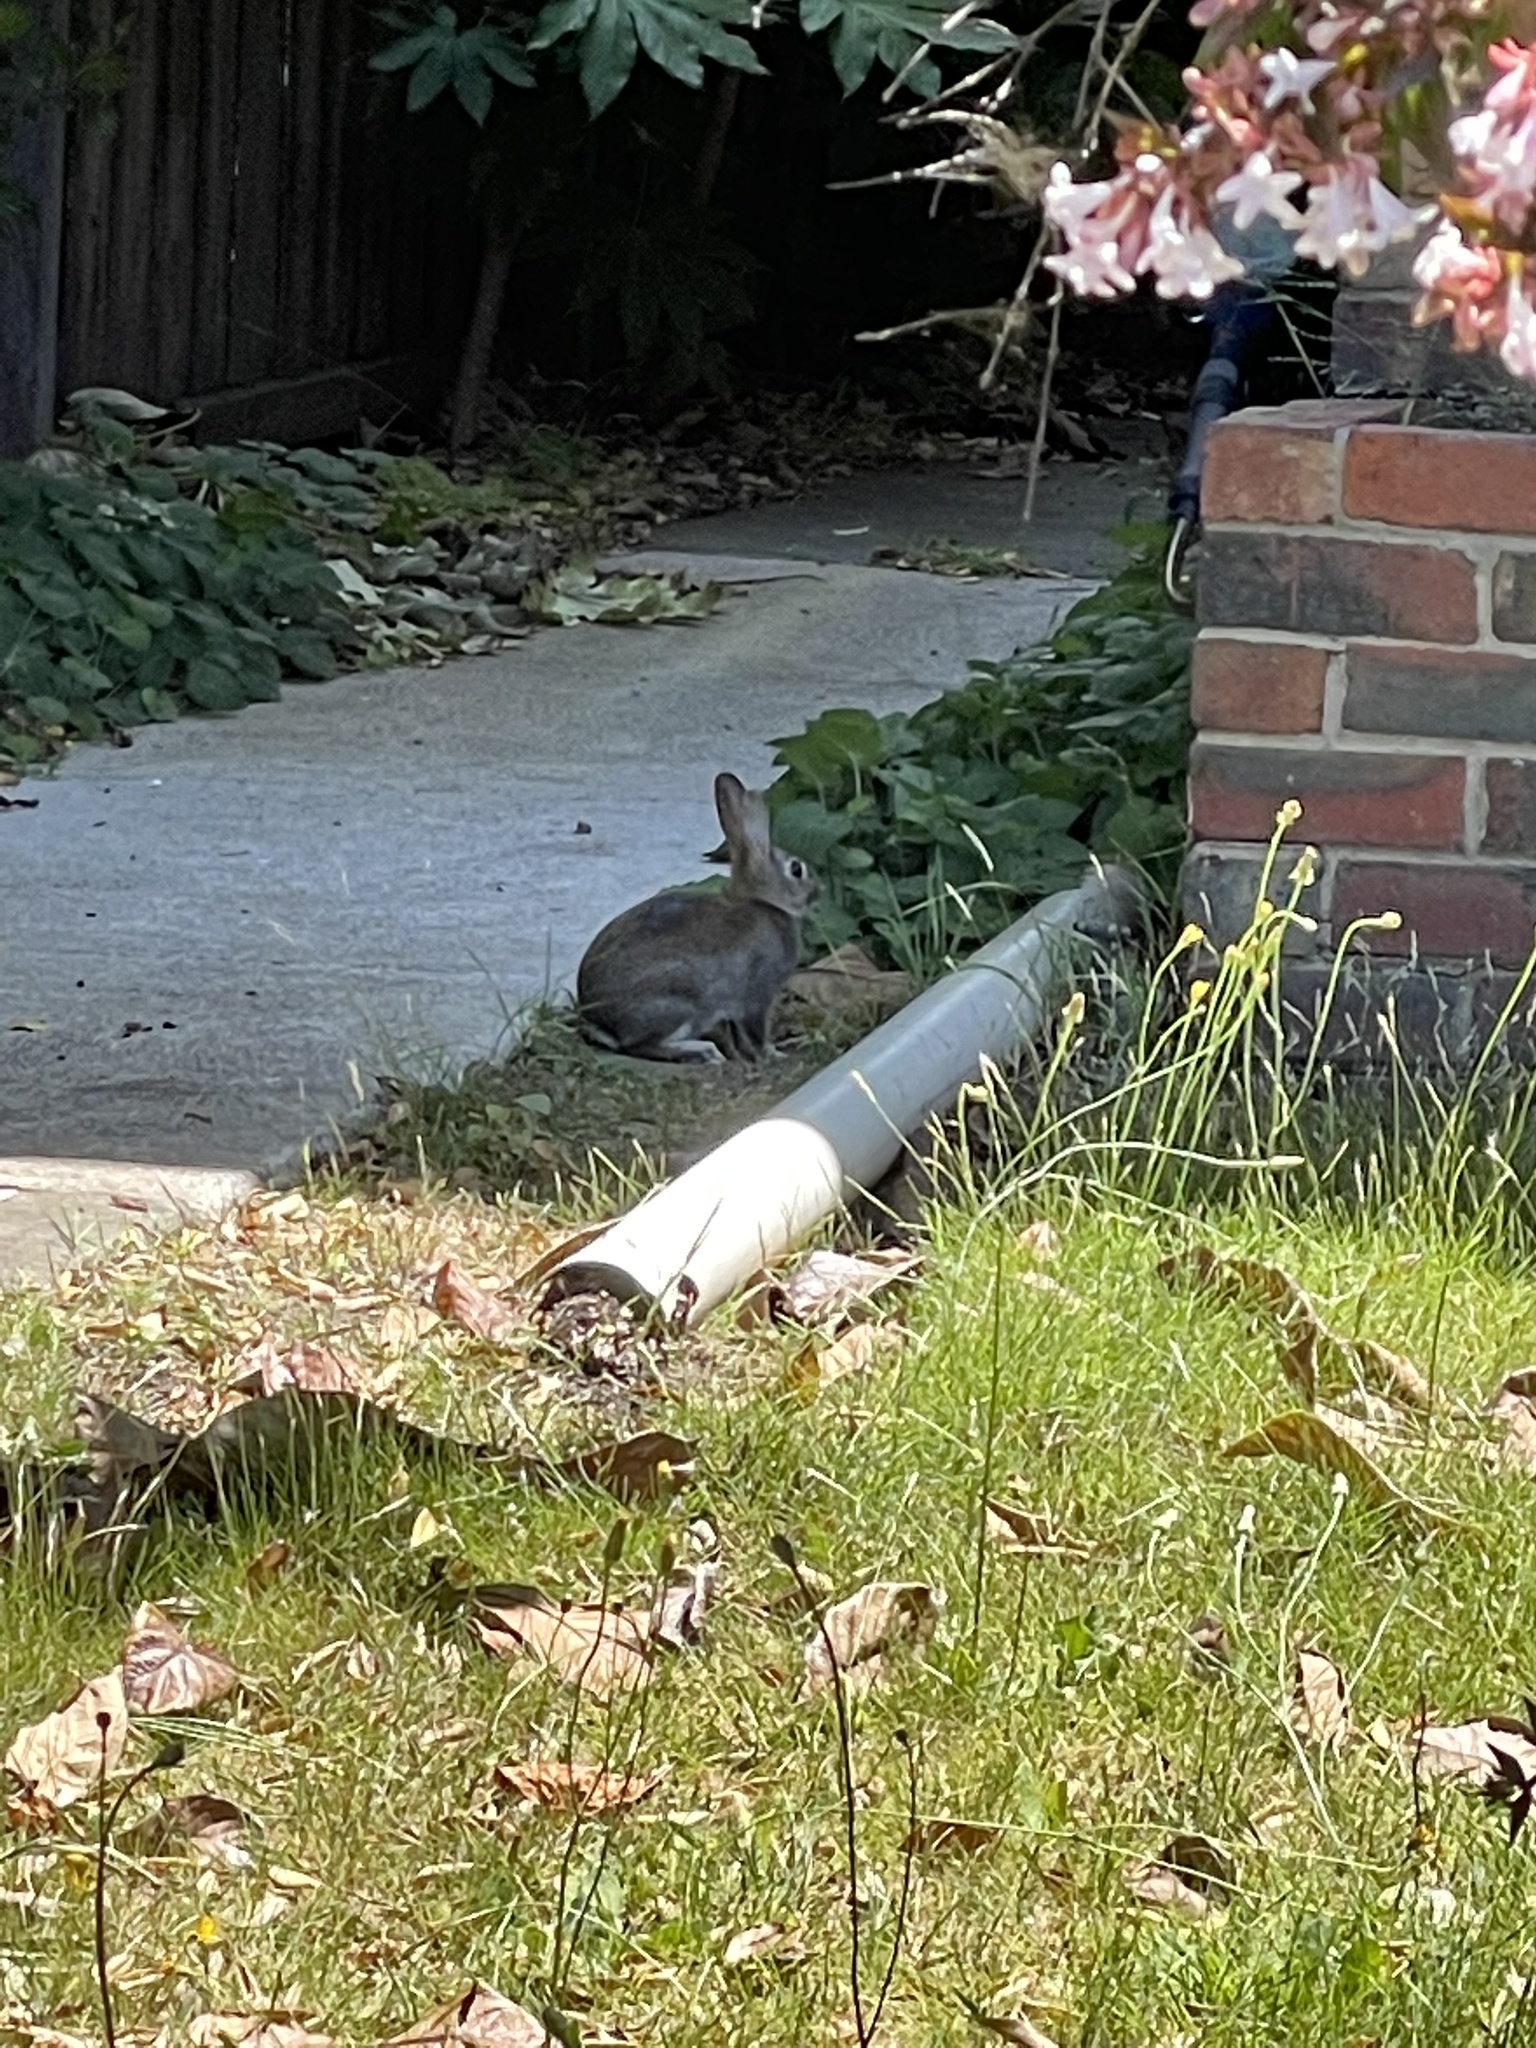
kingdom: Animalia
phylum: Chordata
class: Mammalia
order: Lagomorpha
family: Leporidae
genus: Oryctolagus
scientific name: Oryctolagus cuniculus
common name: European rabbit
